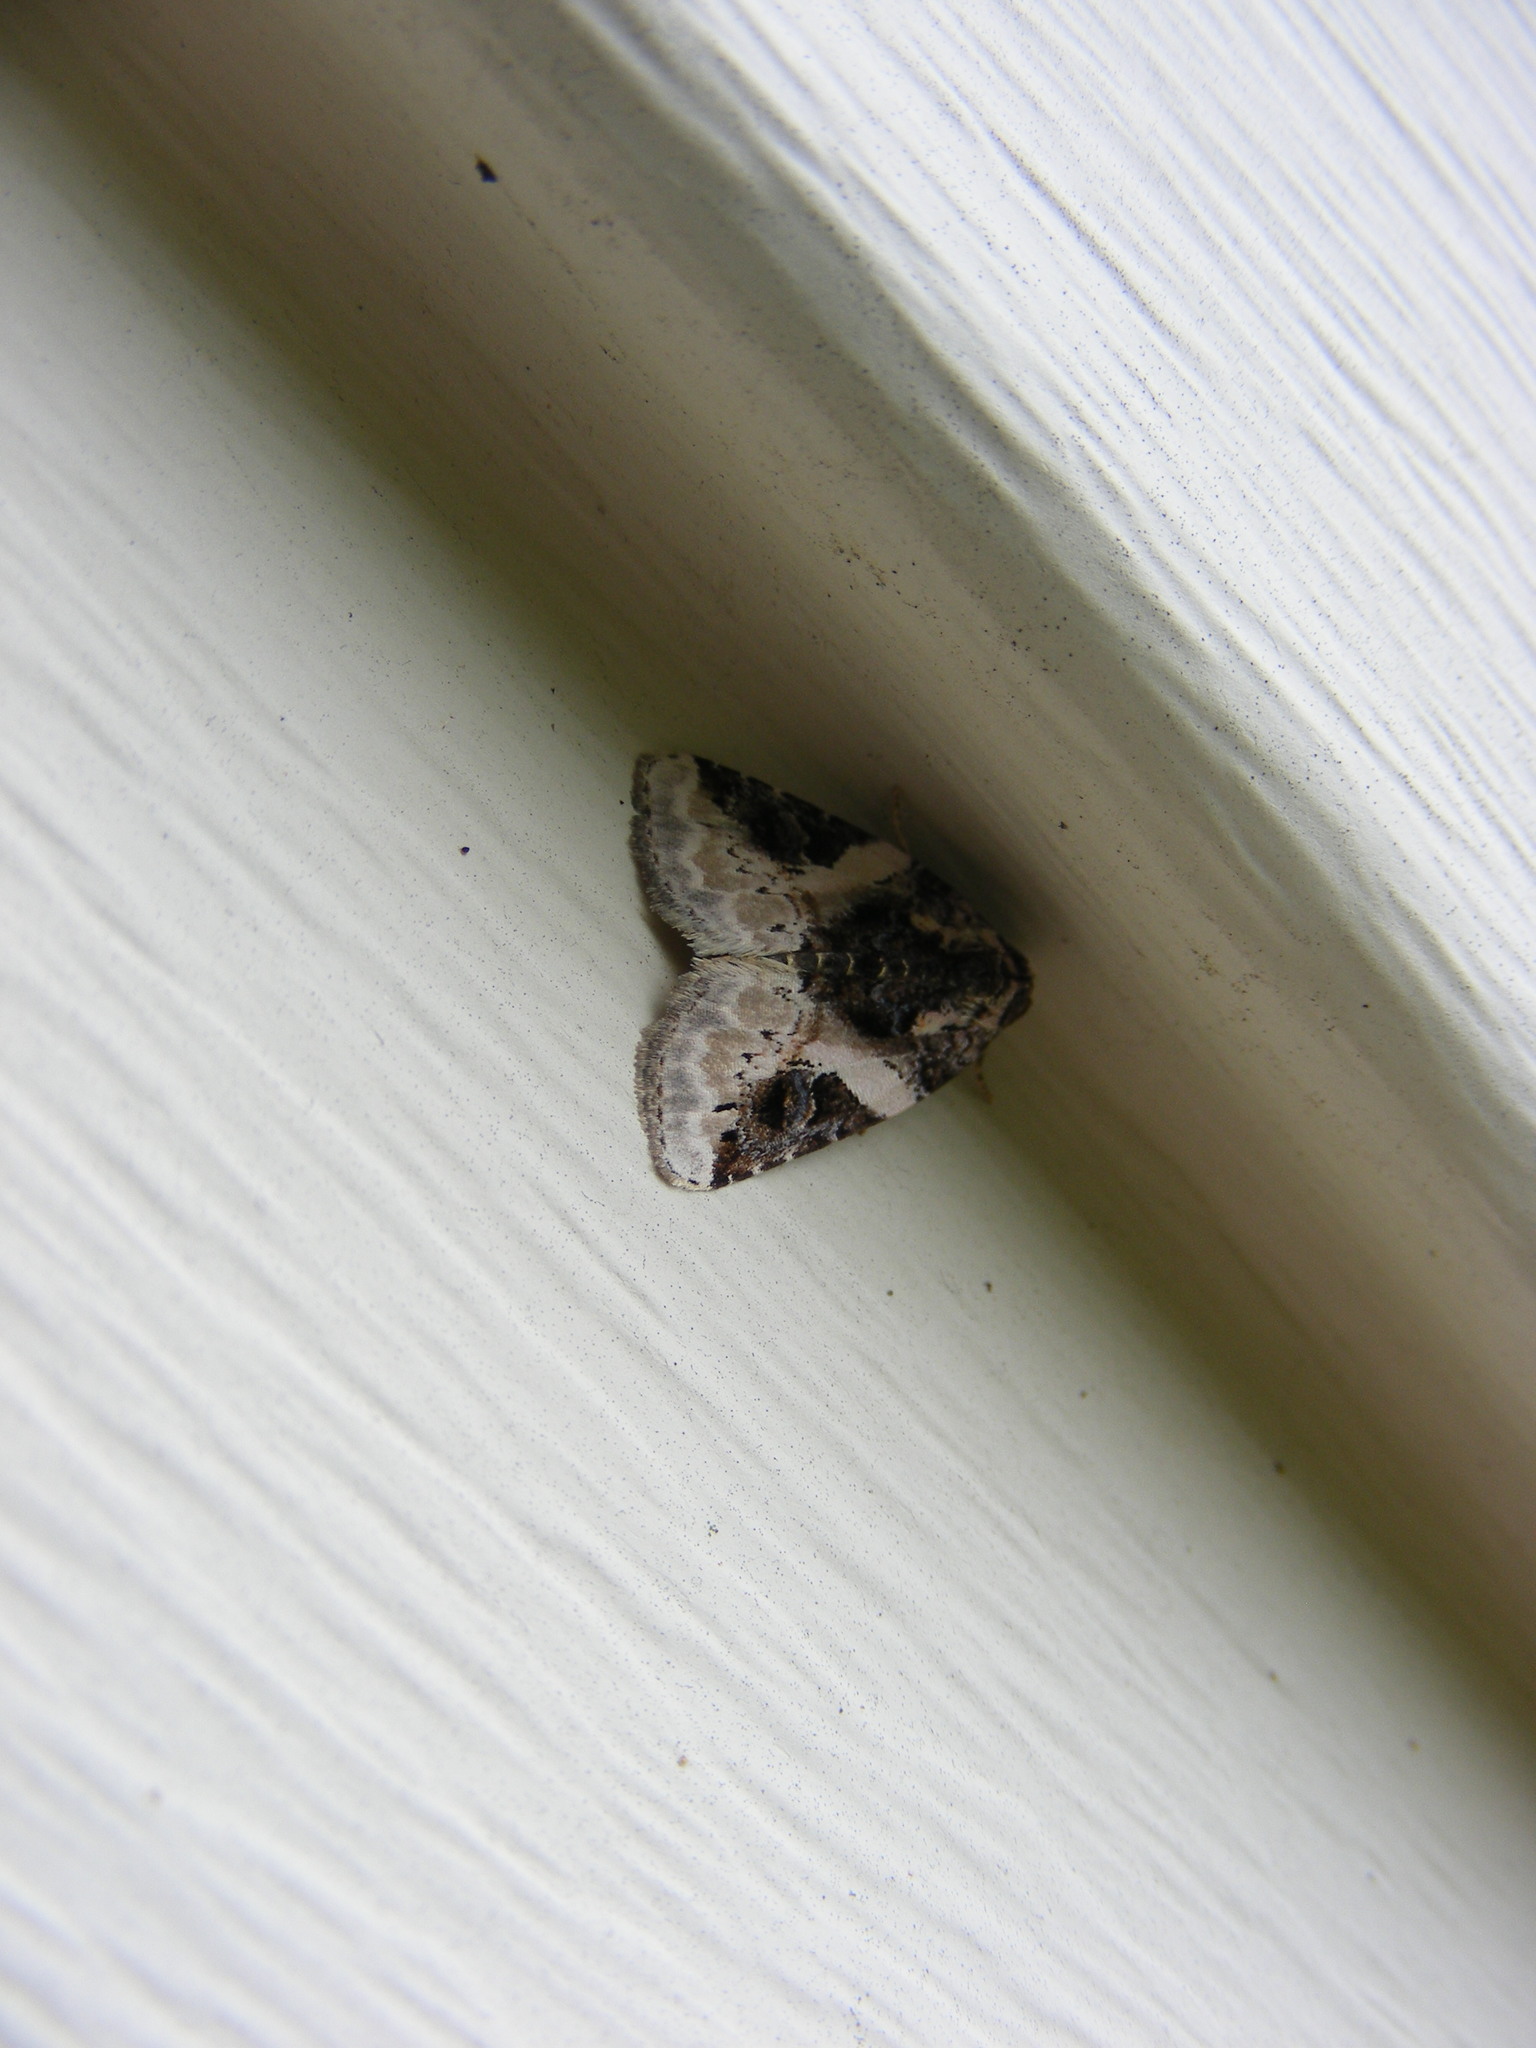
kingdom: Animalia
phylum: Arthropoda
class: Insecta
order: Lepidoptera
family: Noctuidae
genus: Pseudeustrotia
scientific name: Pseudeustrotia carneola
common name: Pink-barred lithacodia moth
